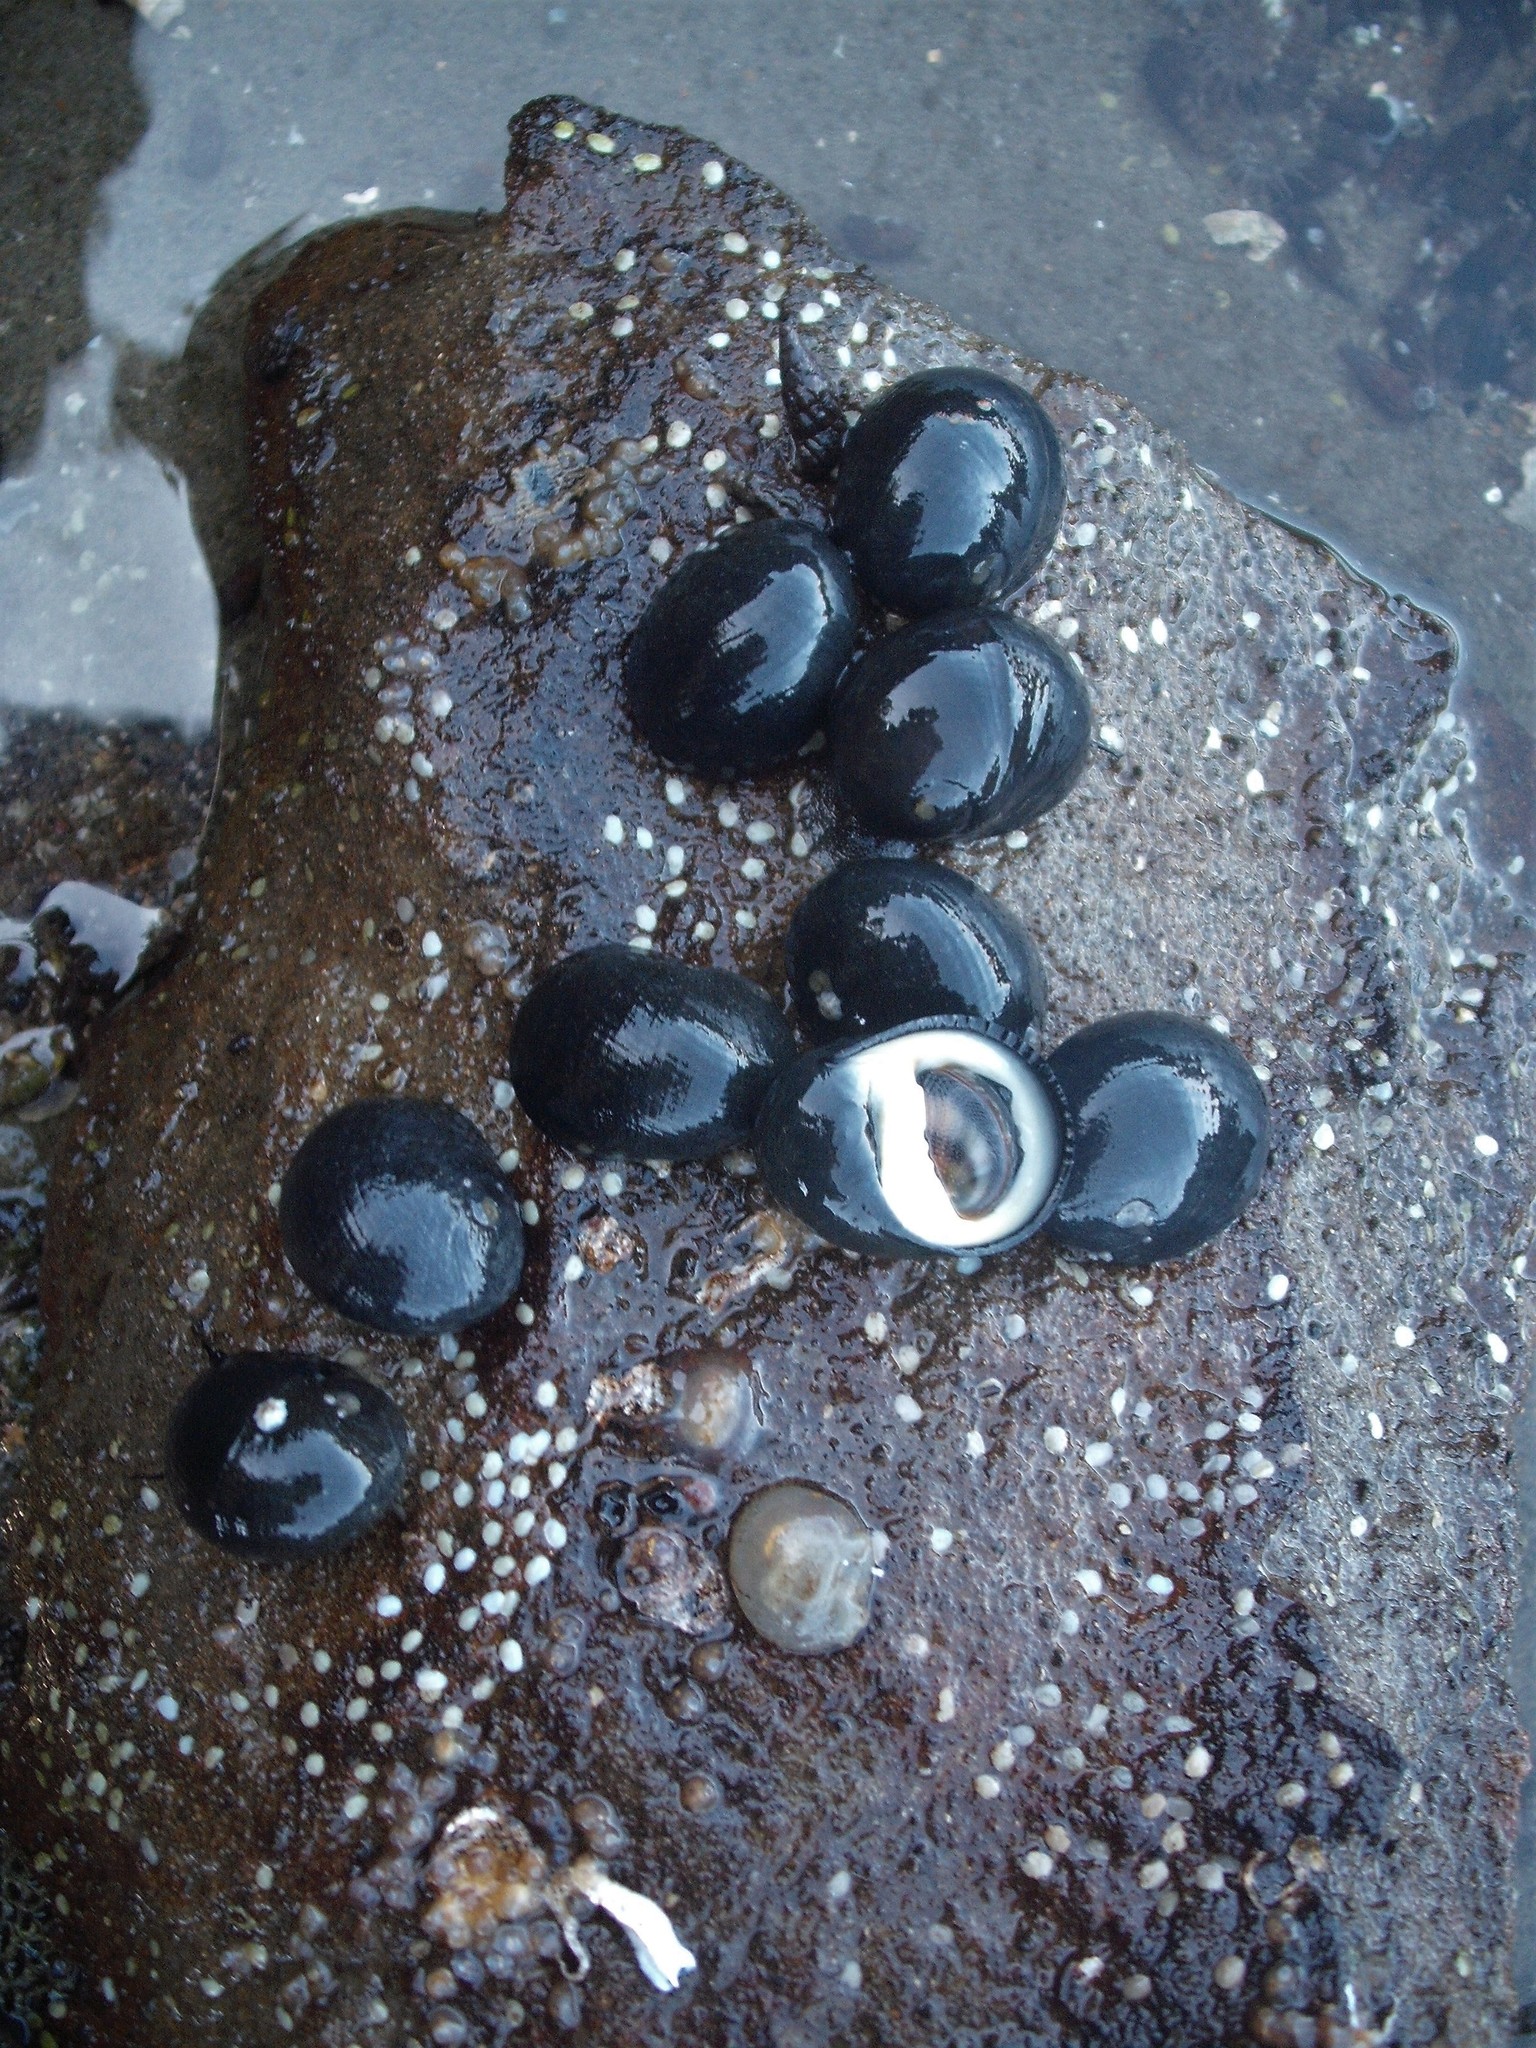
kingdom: Animalia
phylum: Mollusca
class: Gastropoda
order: Cycloneritida
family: Neritidae
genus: Nerita
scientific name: Nerita melanotragus
